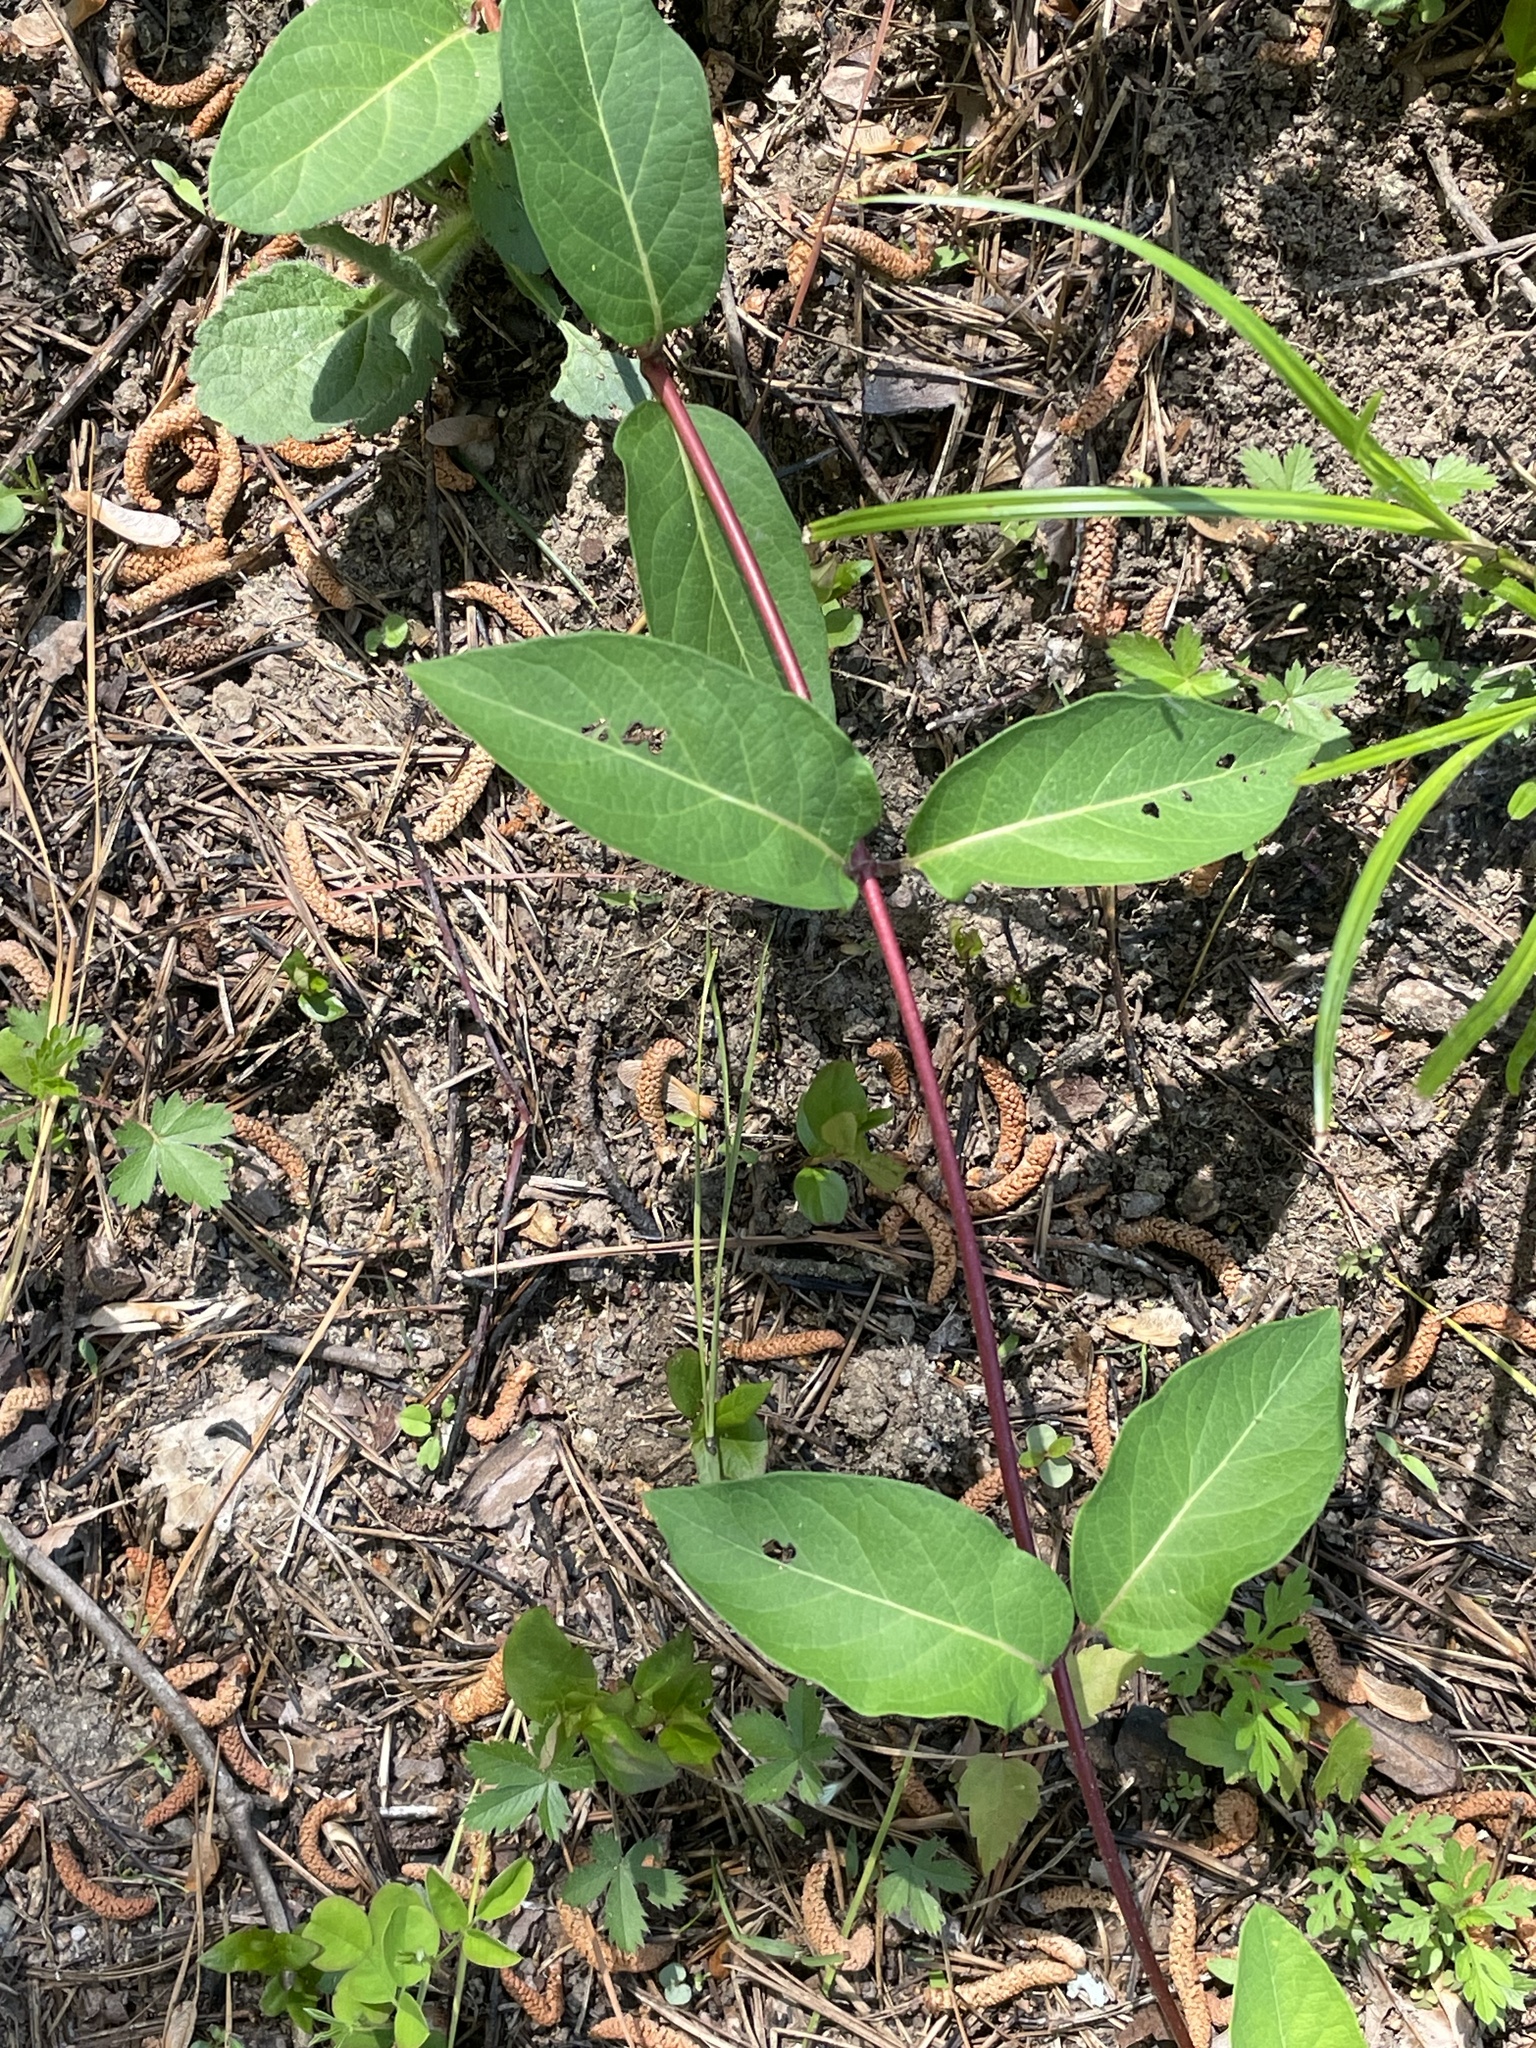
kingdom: Plantae
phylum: Tracheophyta
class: Magnoliopsida
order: Dipsacales
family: Caprifoliaceae
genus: Lonicera
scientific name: Lonicera japonica
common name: Japanese honeysuckle
